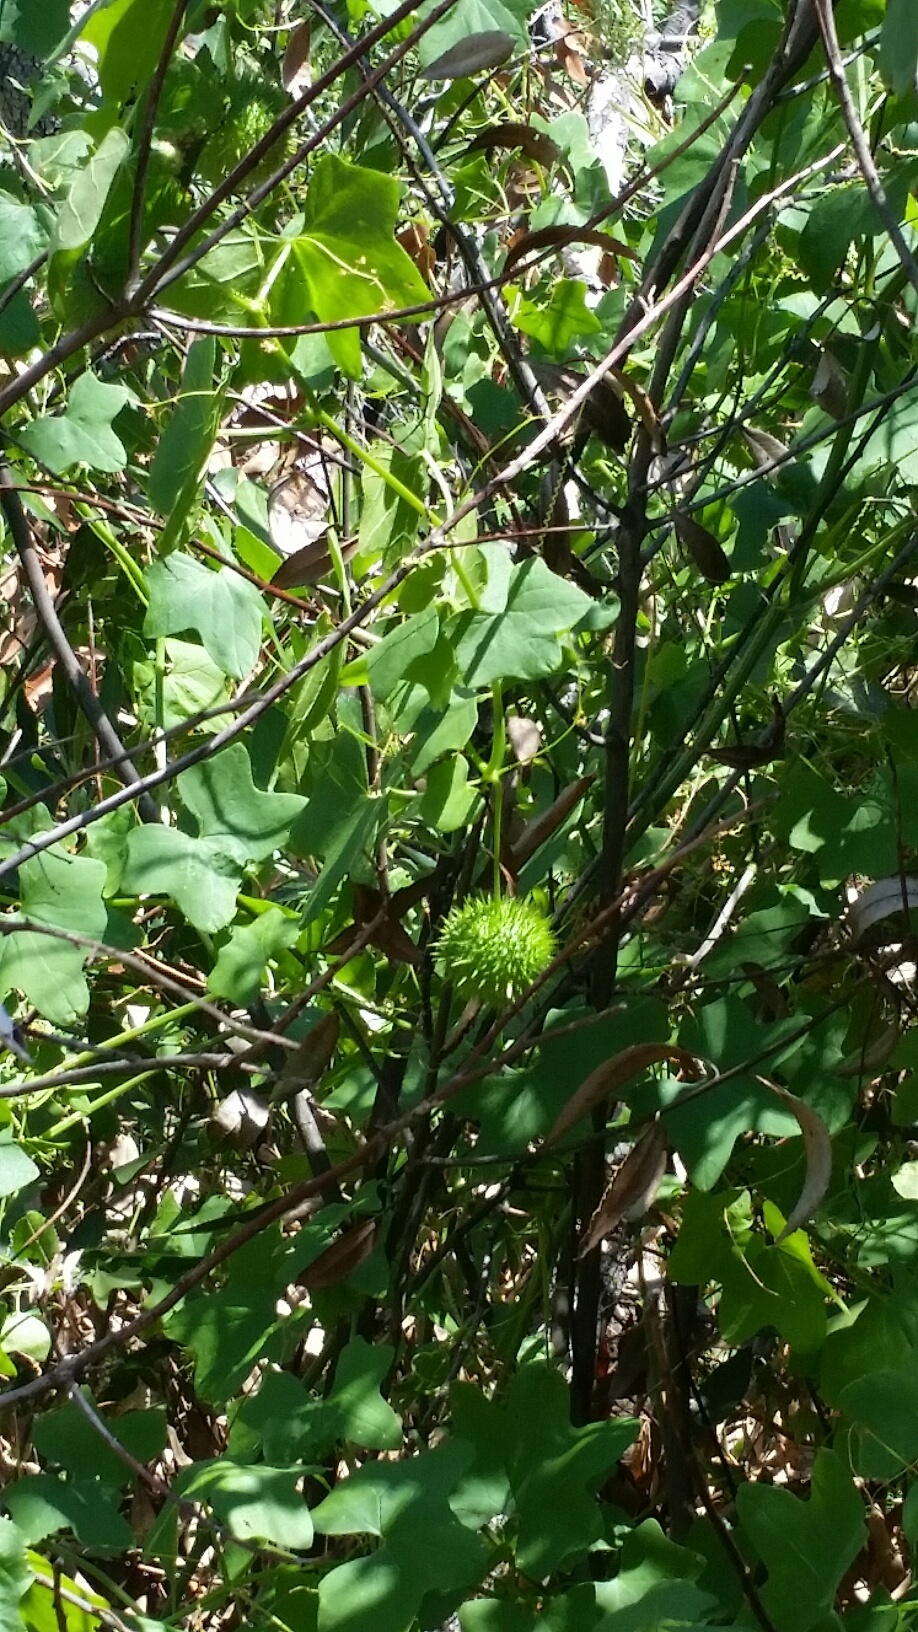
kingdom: Plantae
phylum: Tracheophyta
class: Magnoliopsida
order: Cucurbitales
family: Cucurbitaceae
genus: Marah
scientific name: Marah fabacea
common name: California manroot
